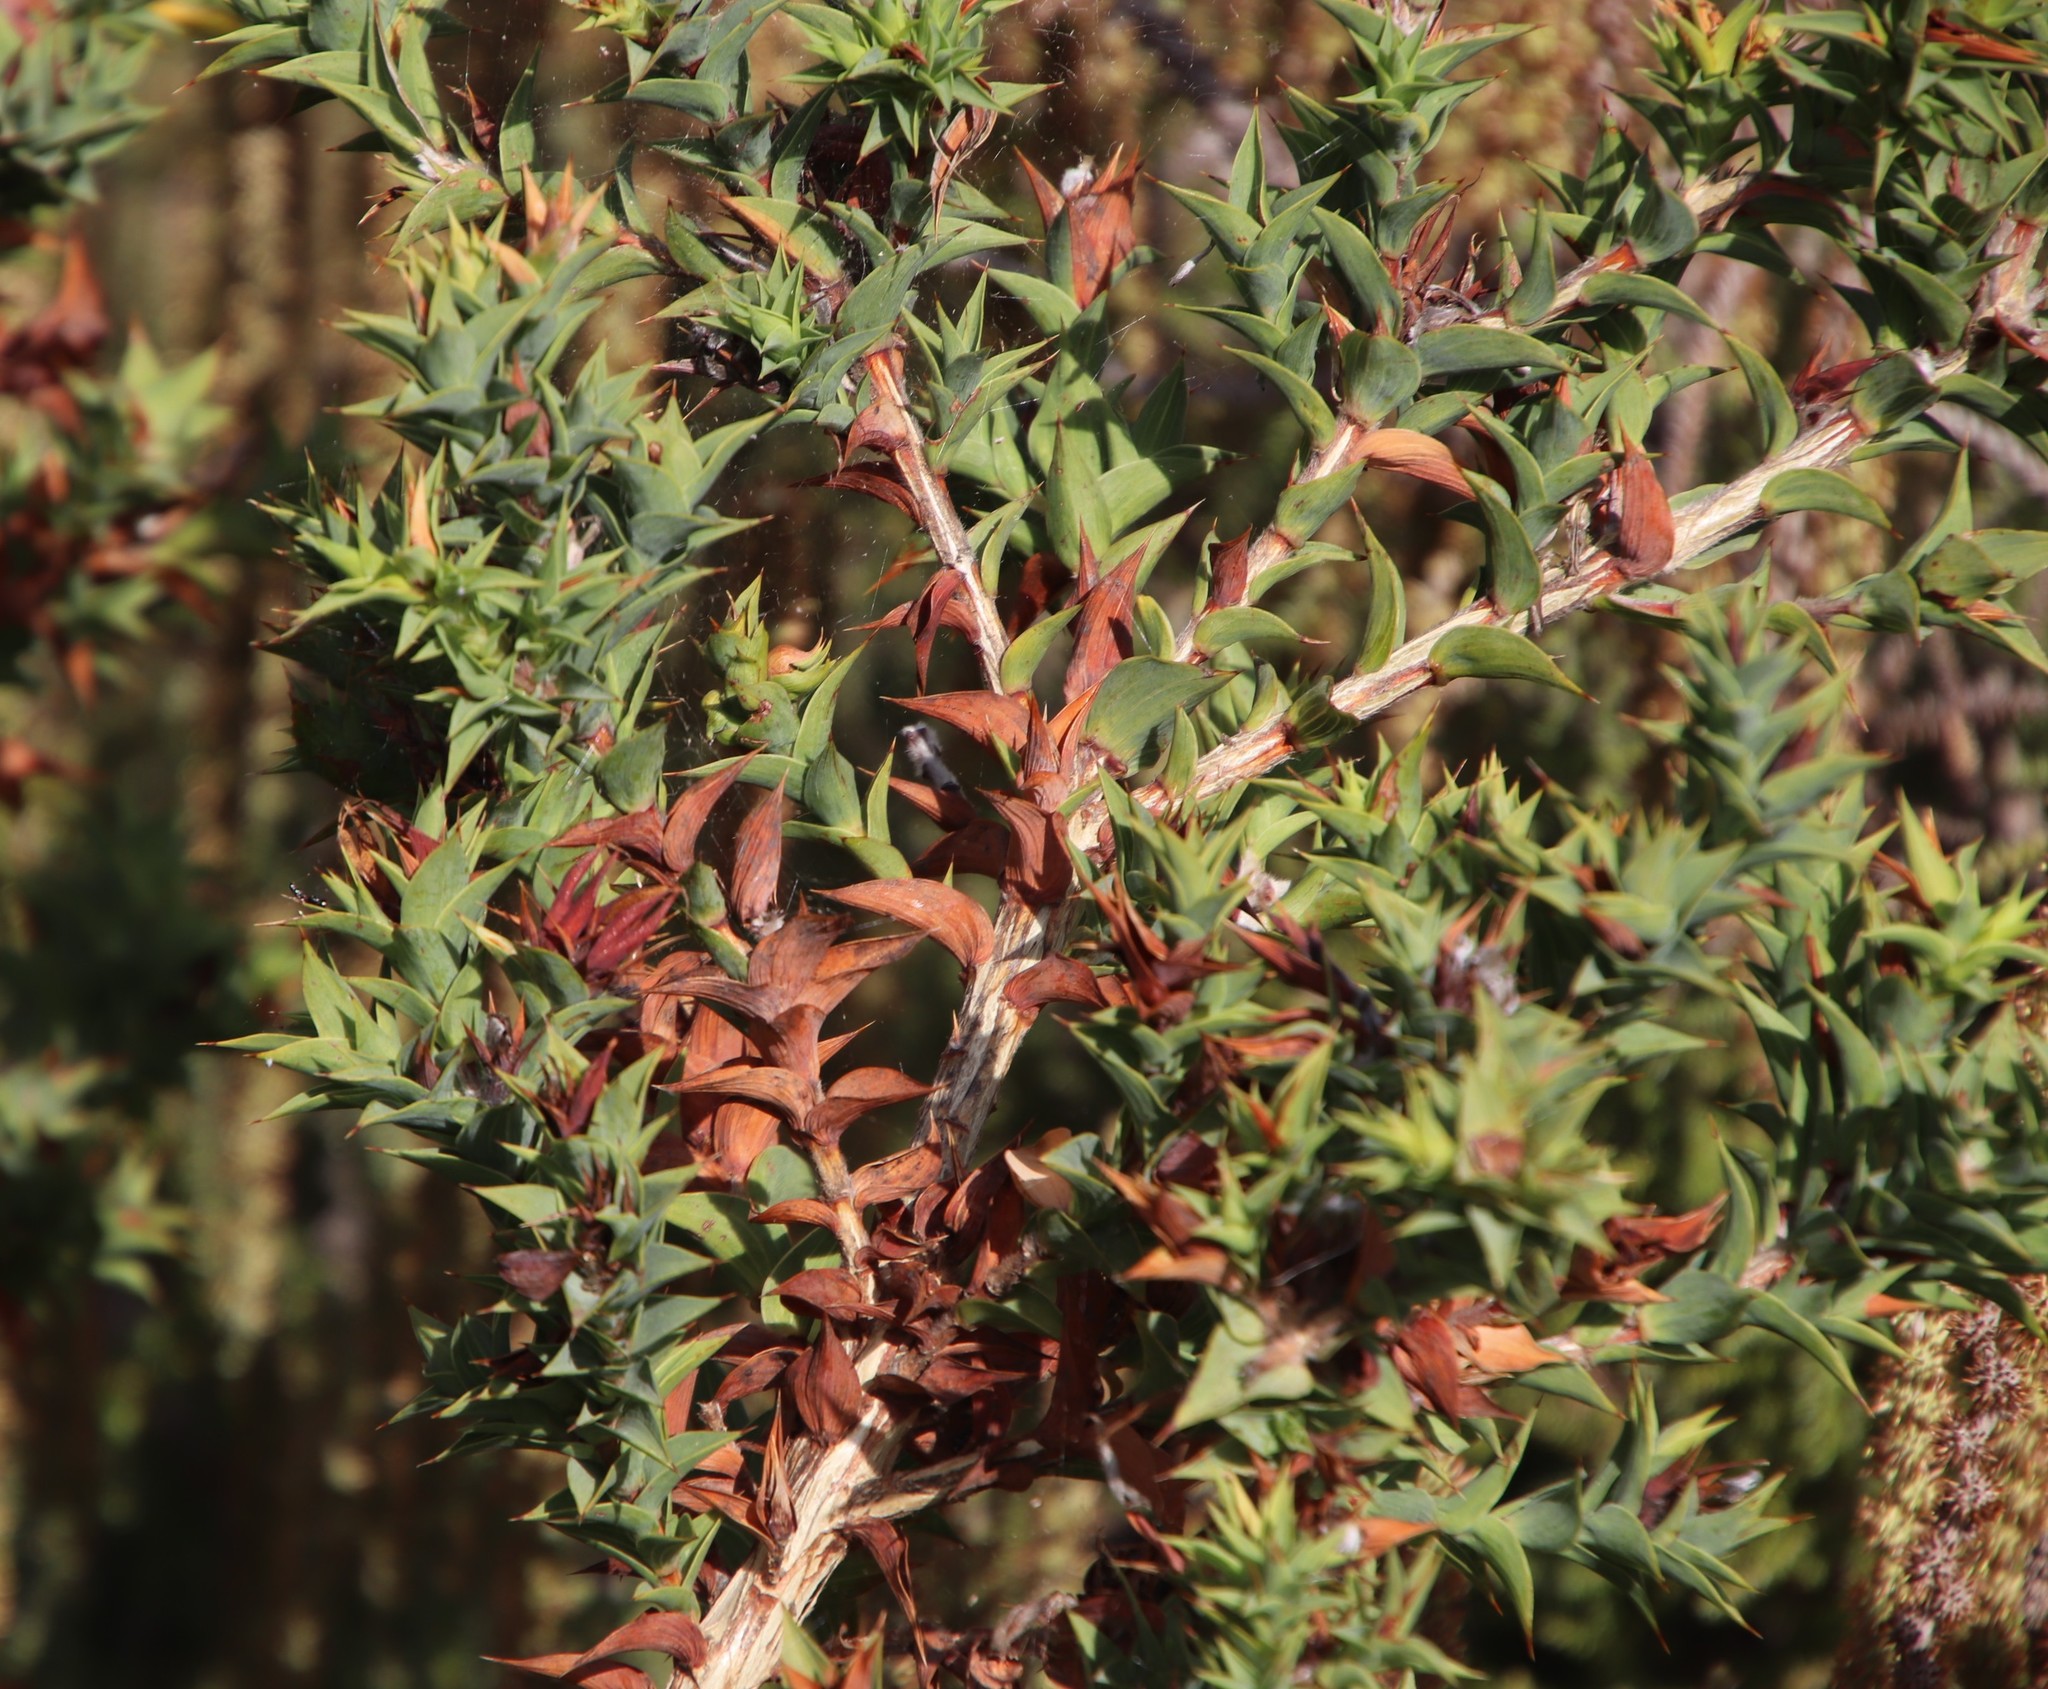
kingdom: Plantae
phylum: Tracheophyta
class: Magnoliopsida
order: Fabales
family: Fabaceae
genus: Aspalathus
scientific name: Aspalathus cordata
